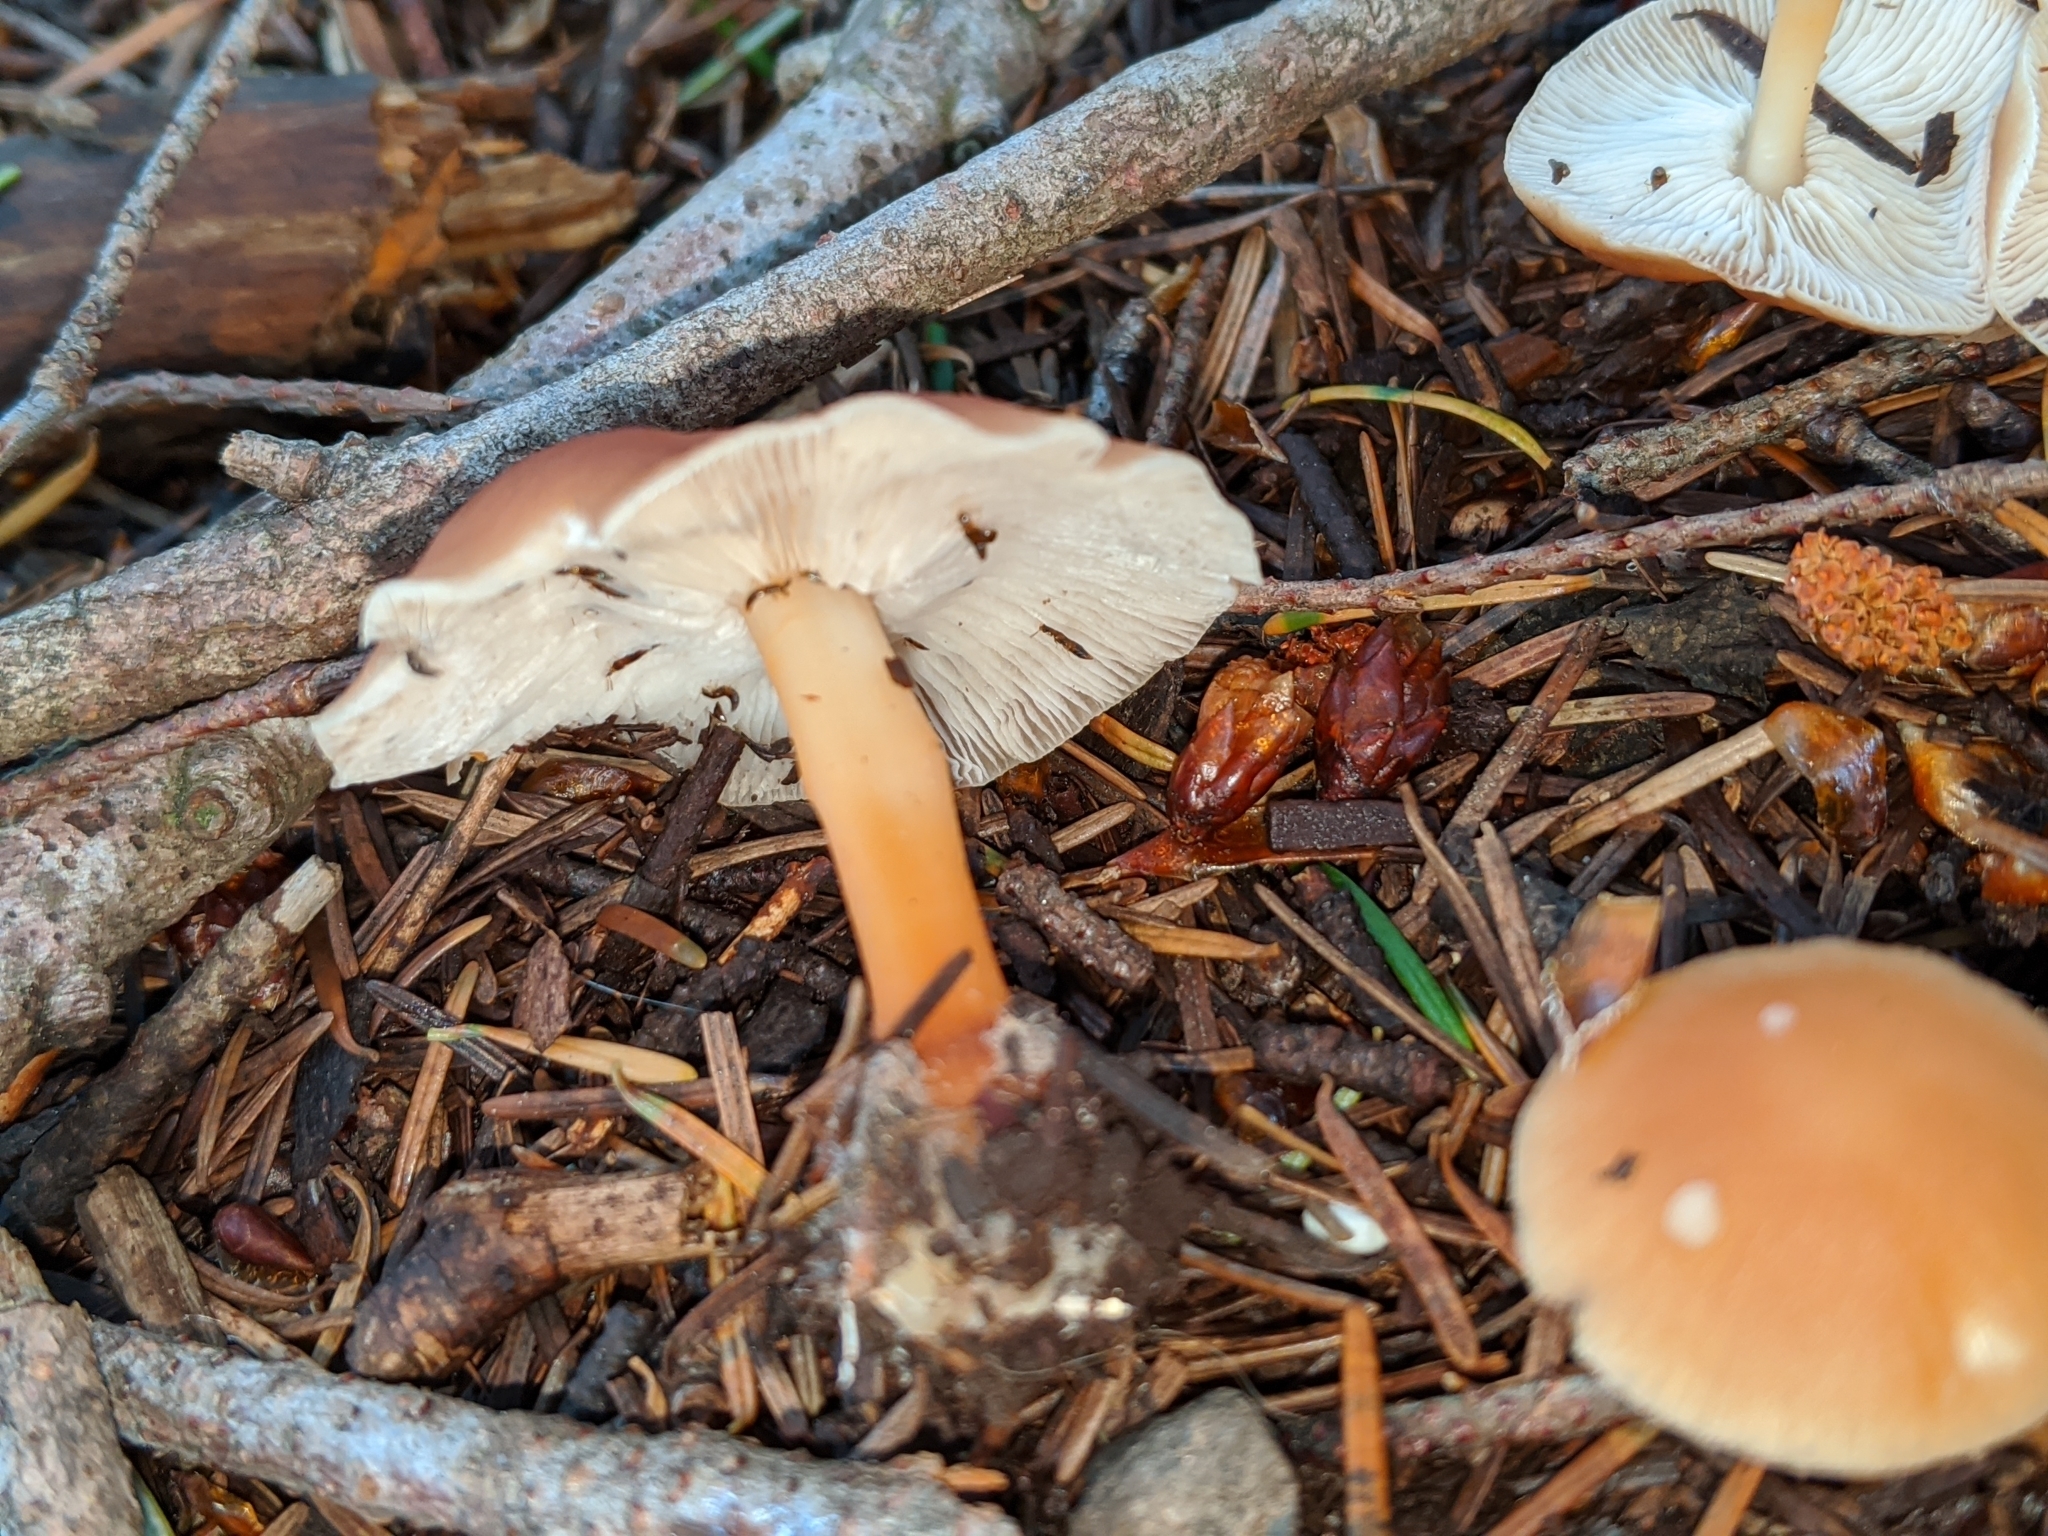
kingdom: Fungi
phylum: Basidiomycota
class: Agaricomycetes
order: Agaricales
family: Omphalotaceae
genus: Gymnopus
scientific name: Gymnopus dryophilus
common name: Penny top
